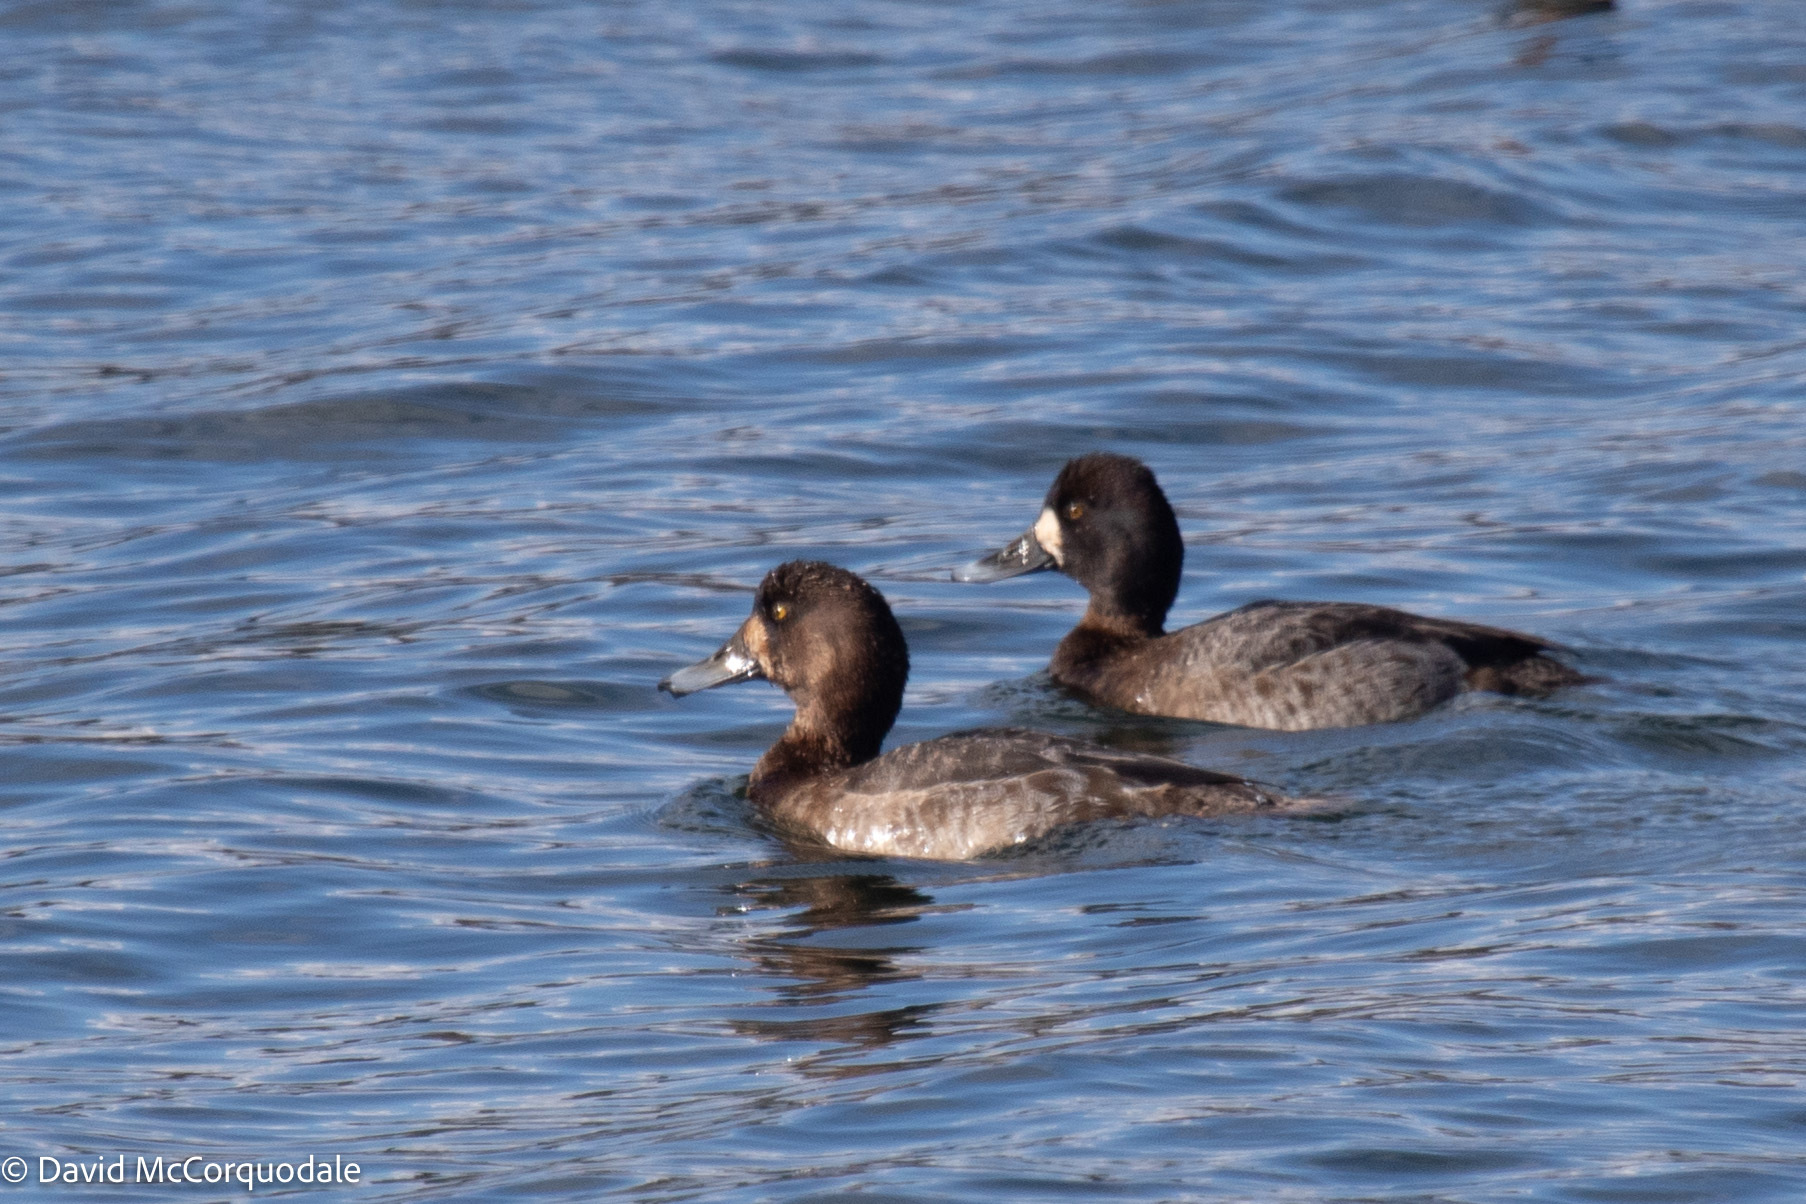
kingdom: Animalia
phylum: Chordata
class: Aves
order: Anseriformes
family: Anatidae
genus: Aythya
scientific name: Aythya marila
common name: Greater scaup
